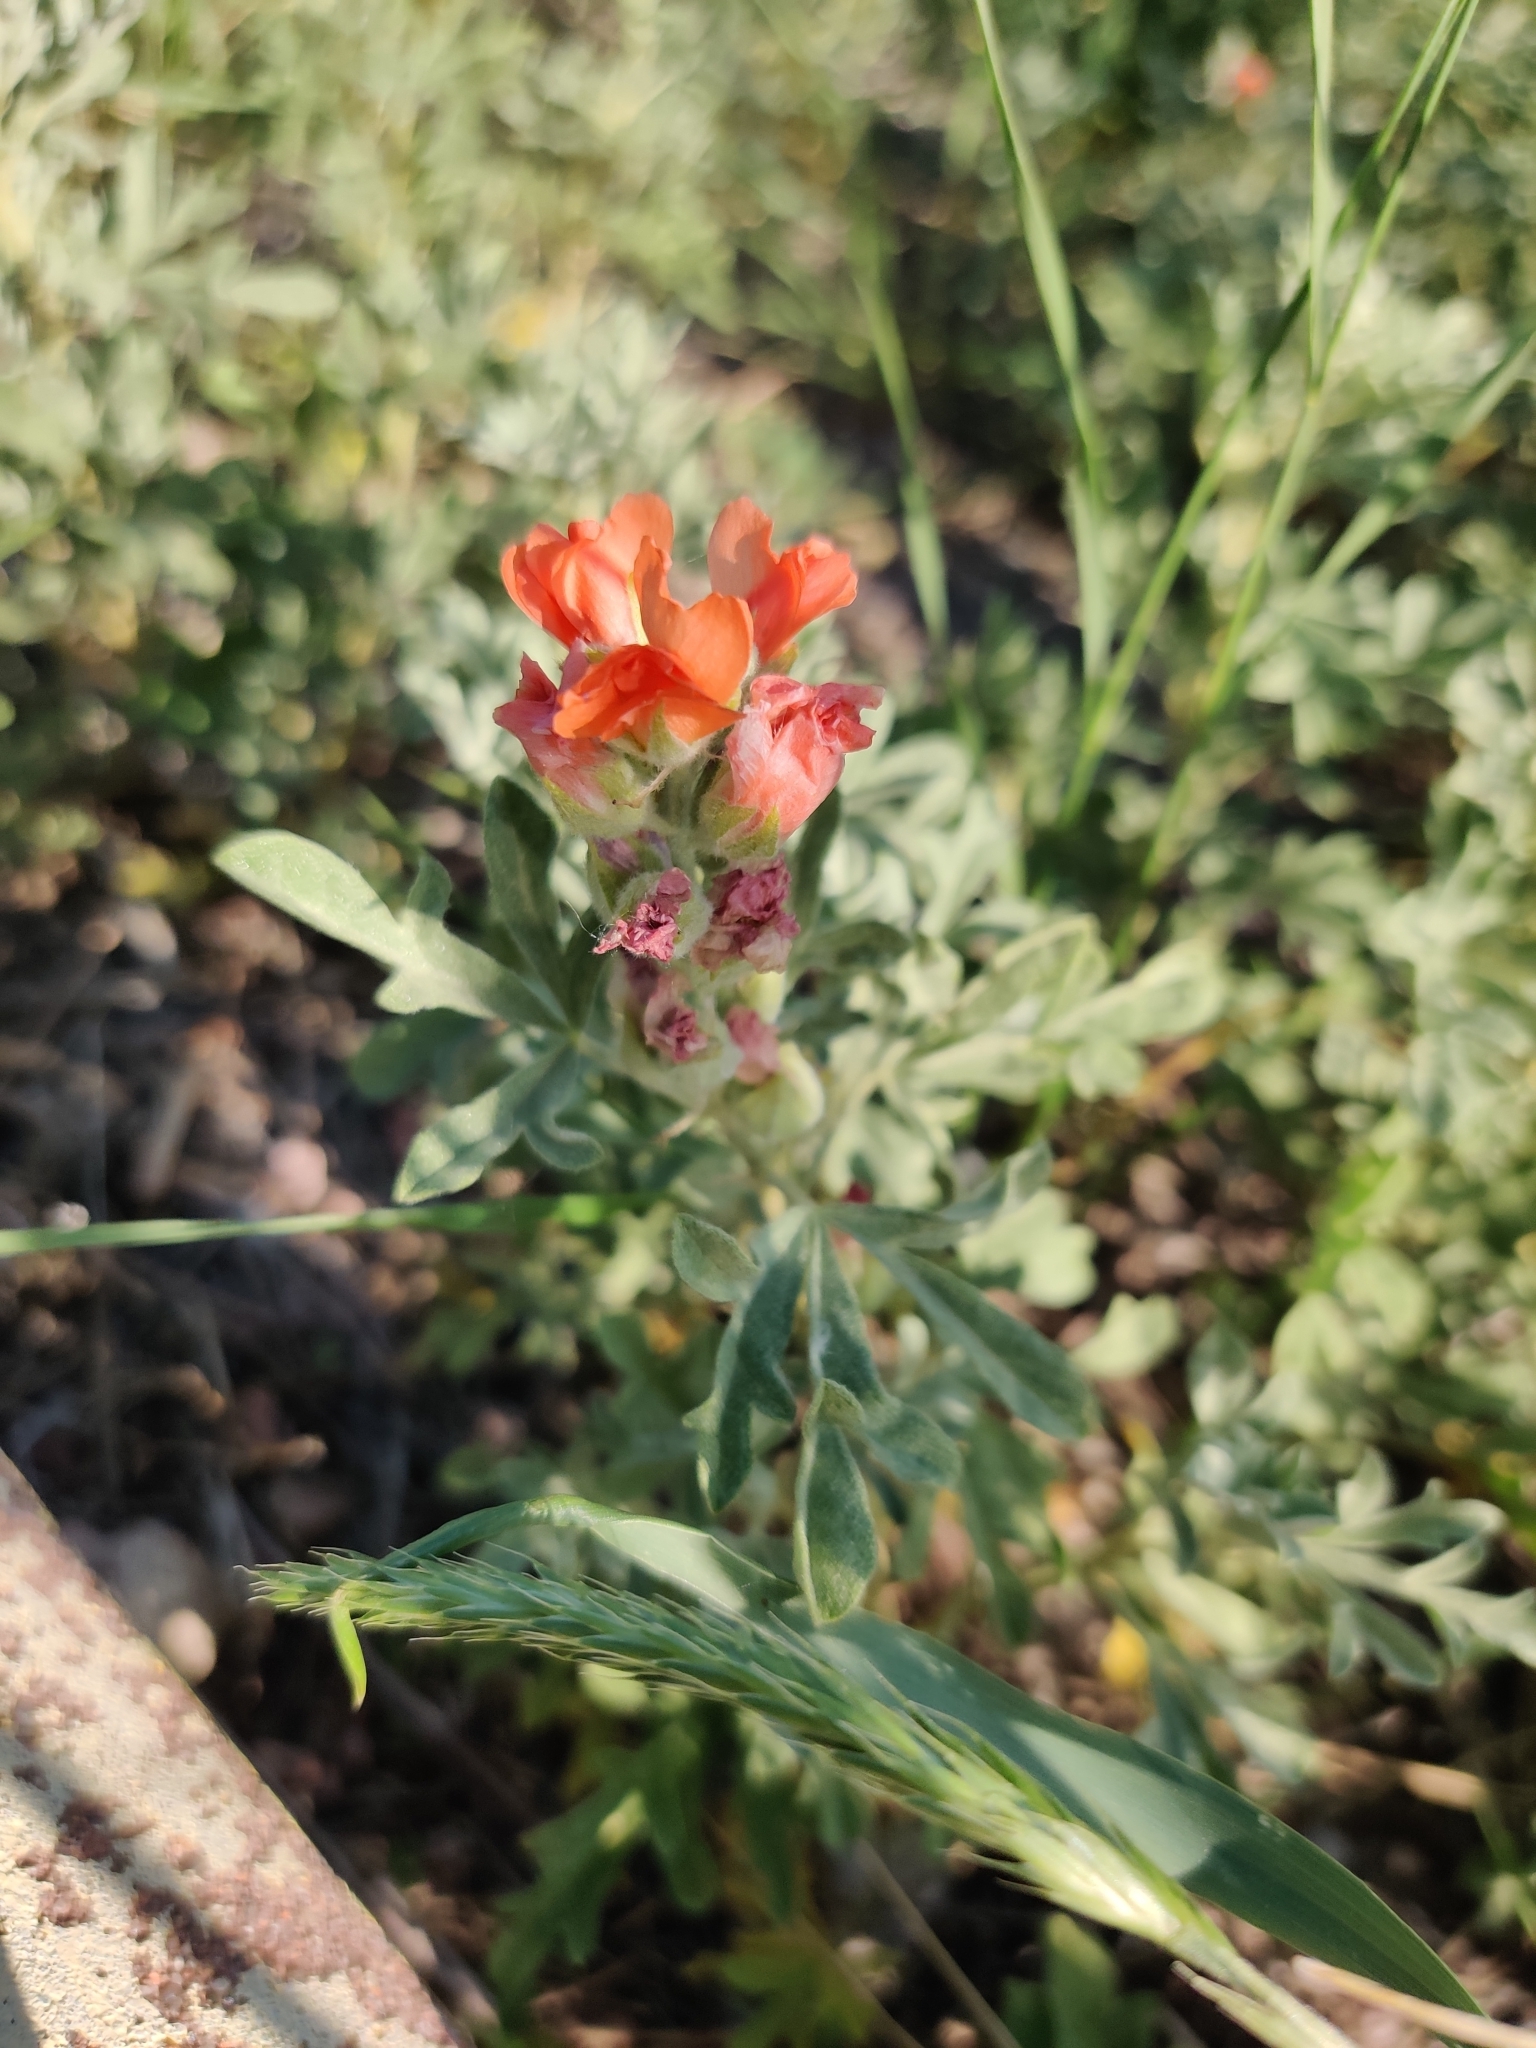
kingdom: Plantae
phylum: Tracheophyta
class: Magnoliopsida
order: Malvales
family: Malvaceae
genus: Sphaeralcea
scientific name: Sphaeralcea coccinea
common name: Moss-rose
